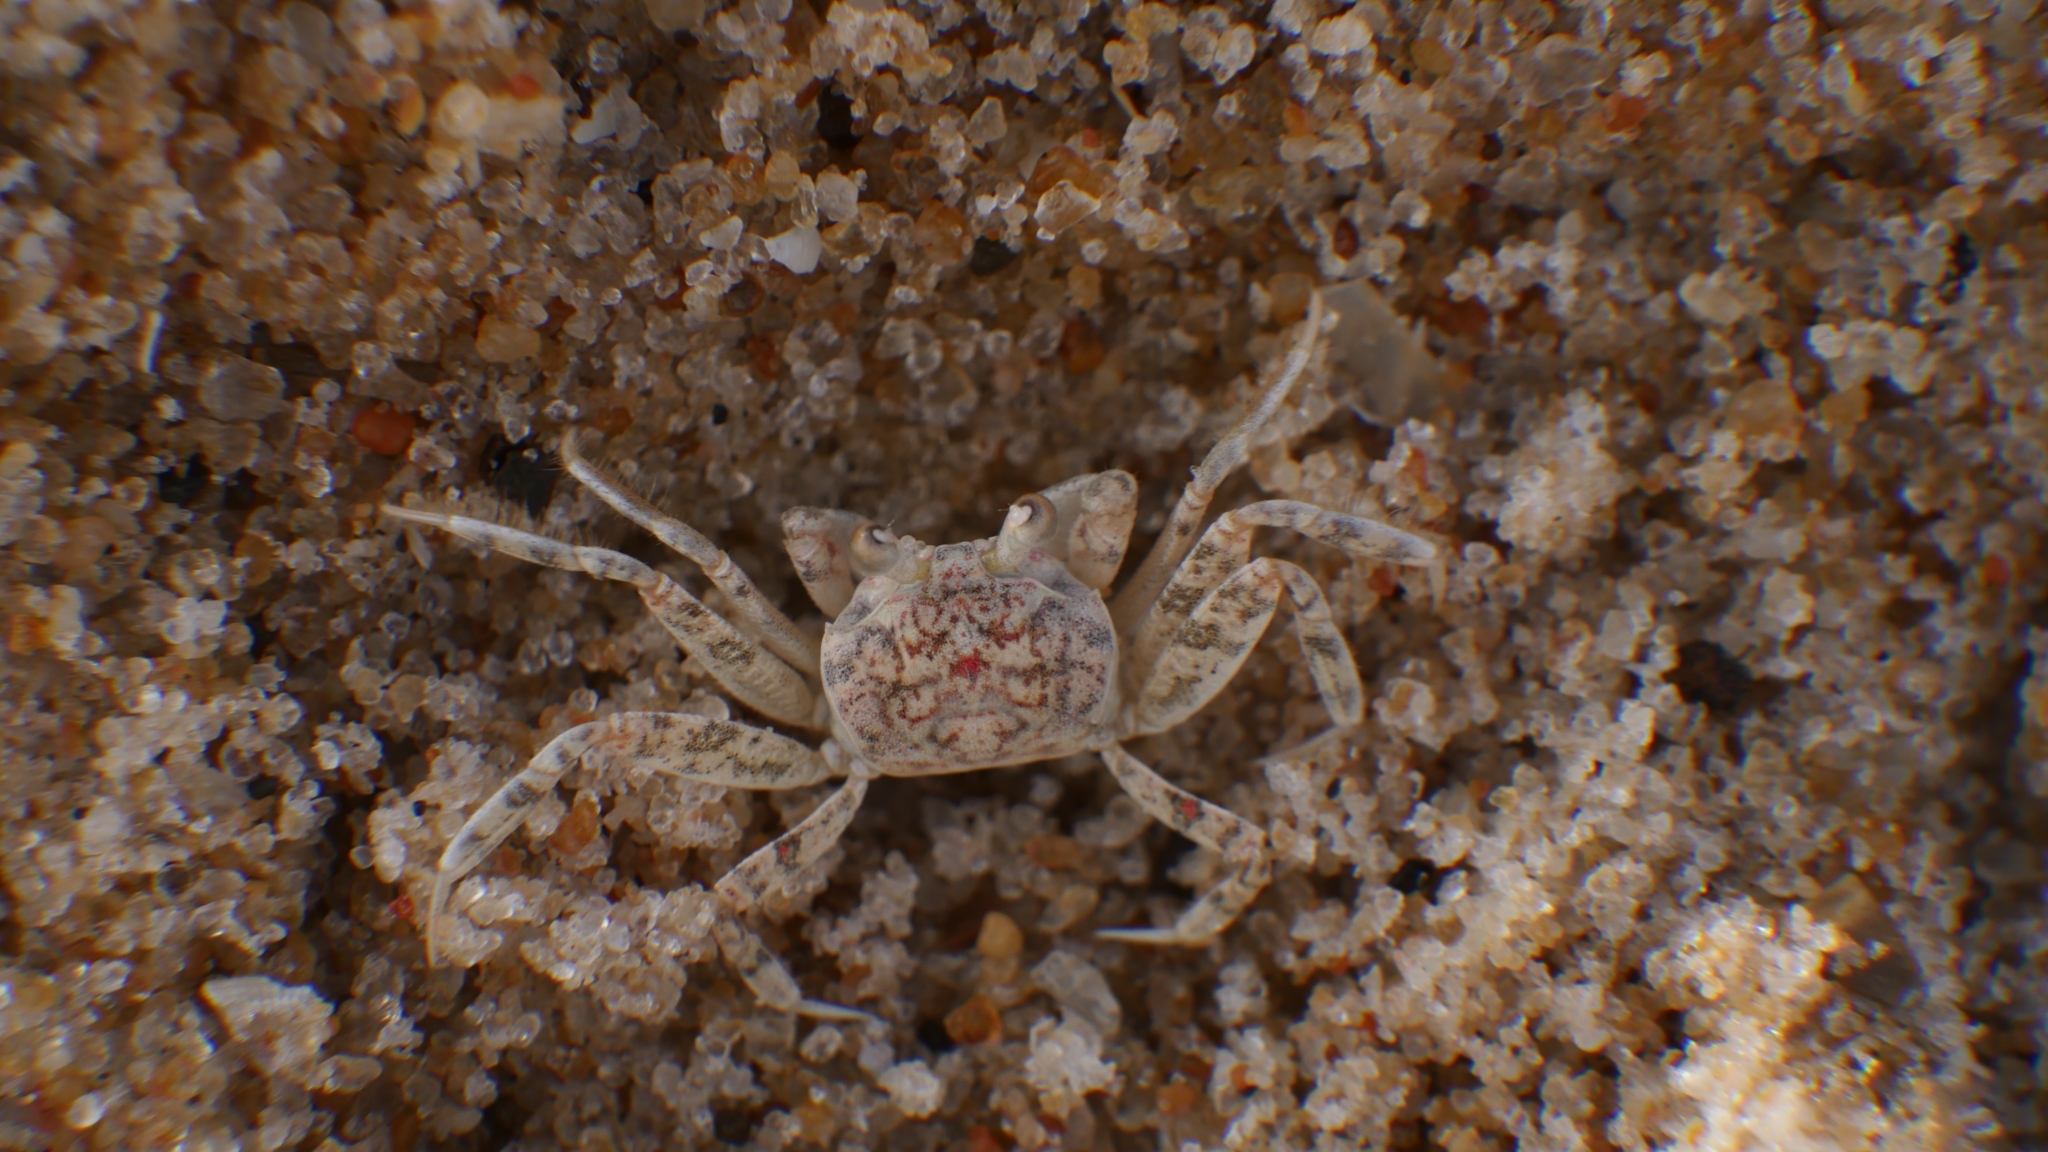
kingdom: Animalia
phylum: Arthropoda
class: Malacostraca
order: Decapoda
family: Ocypodidae
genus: Ocypode
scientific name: Ocypode quadrata
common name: Ghost crab
